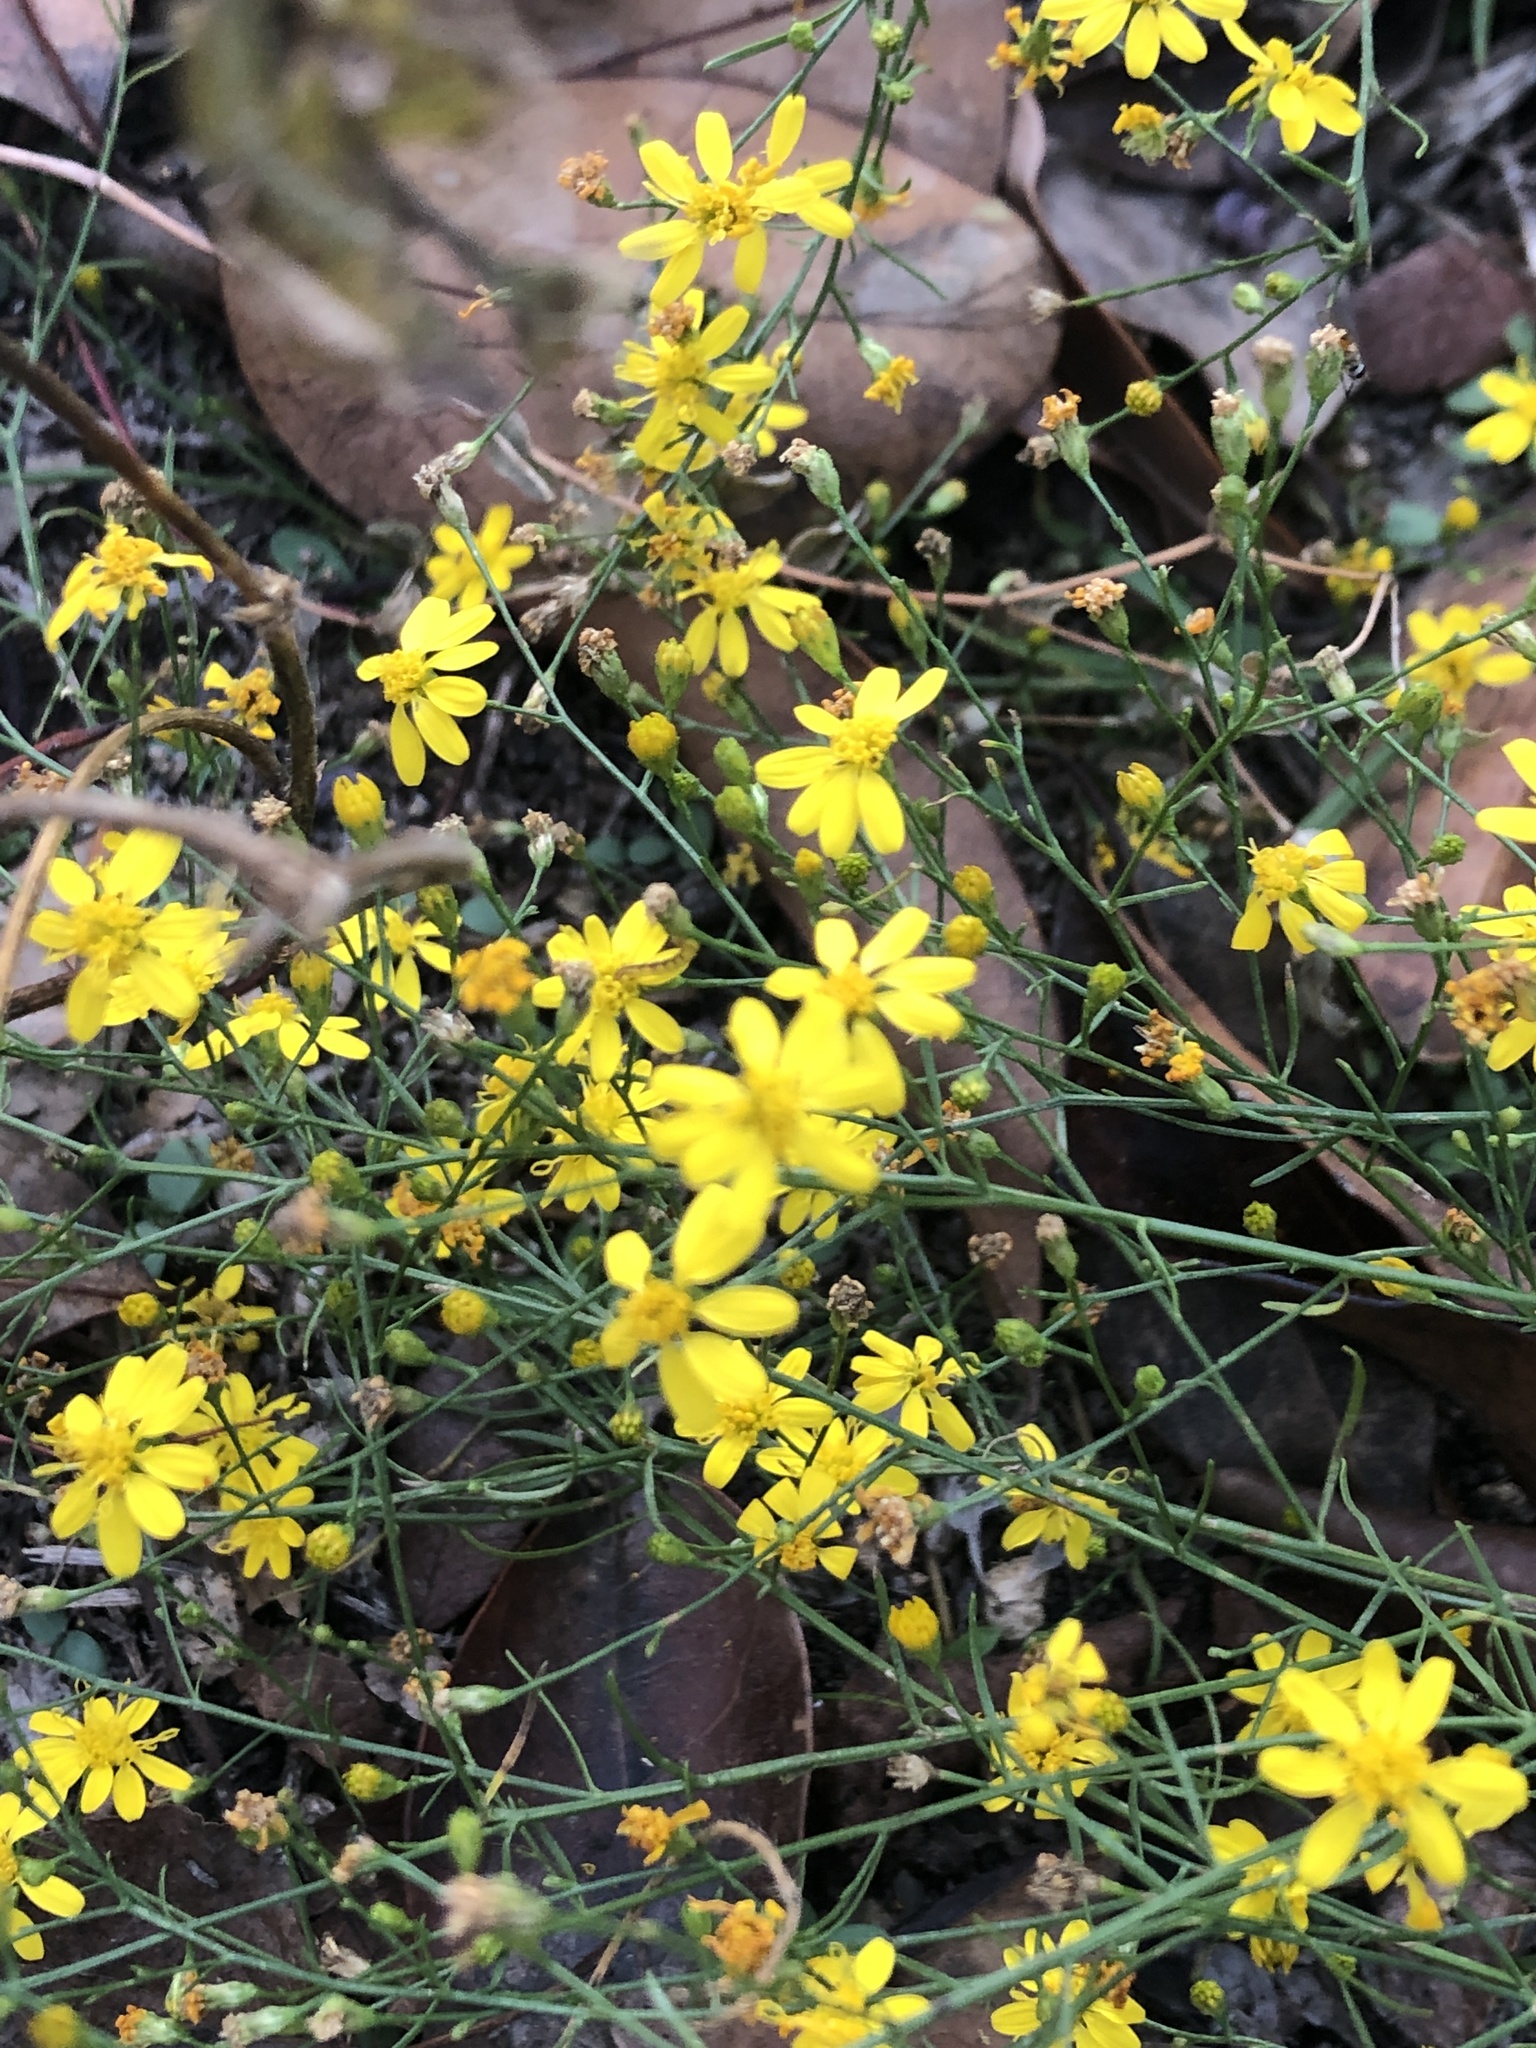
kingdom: Plantae
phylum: Tracheophyta
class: Magnoliopsida
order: Asterales
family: Asteraceae
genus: Gutierrezia
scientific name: Gutierrezia texana
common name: Texas snakeweed
